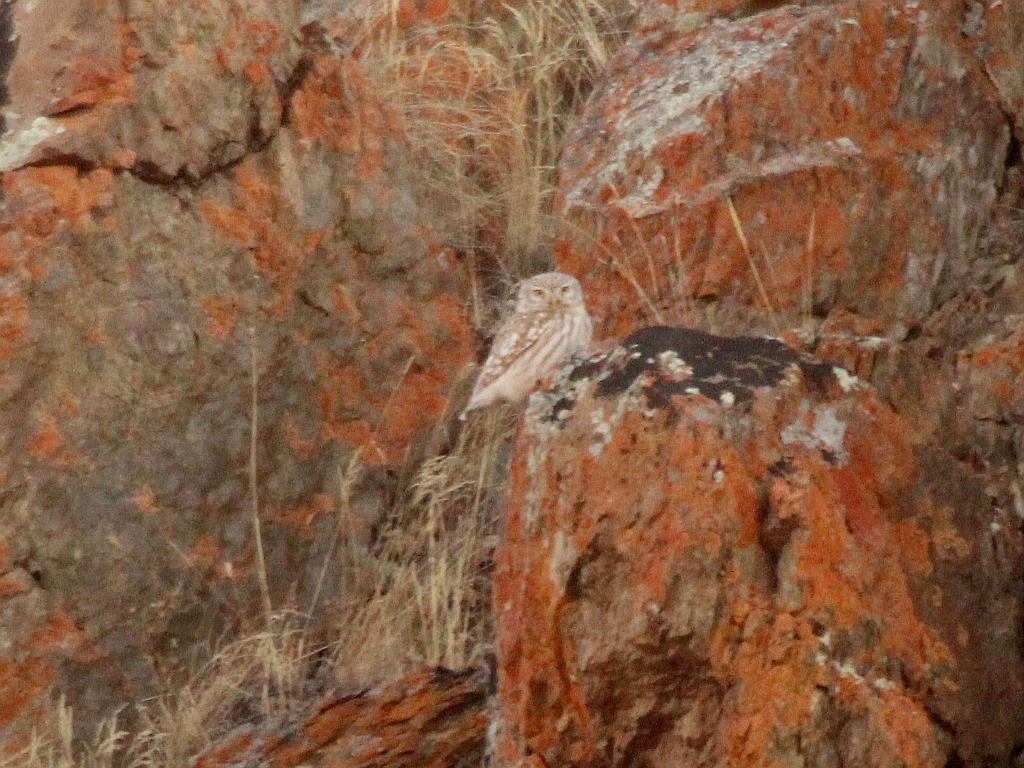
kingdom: Animalia
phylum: Chordata
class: Aves
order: Strigiformes
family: Strigidae
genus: Athene
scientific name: Athene noctua
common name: Little owl
